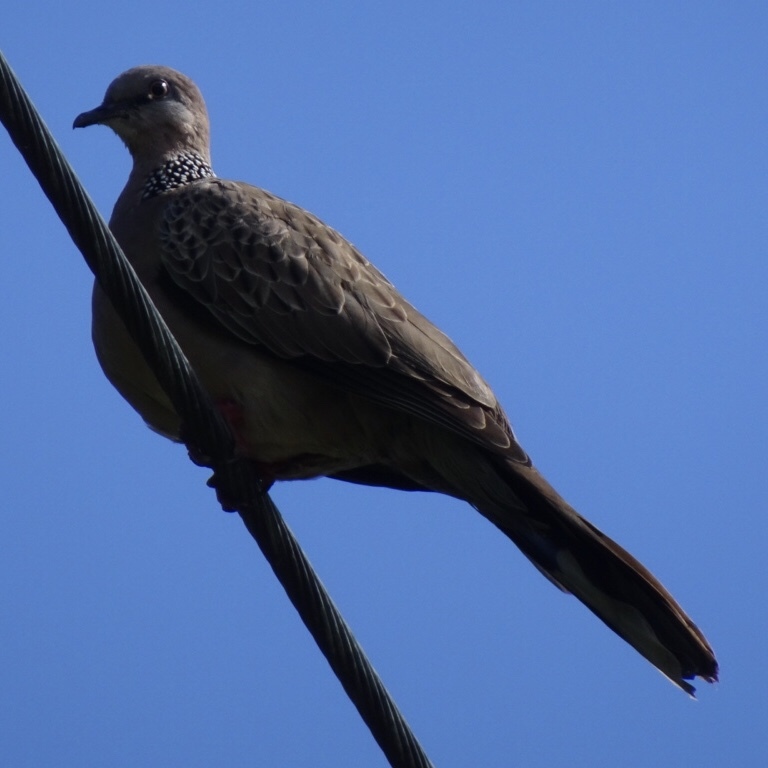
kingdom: Animalia
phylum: Chordata
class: Aves
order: Columbiformes
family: Columbidae
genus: Spilopelia
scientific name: Spilopelia chinensis
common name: Spotted dove
